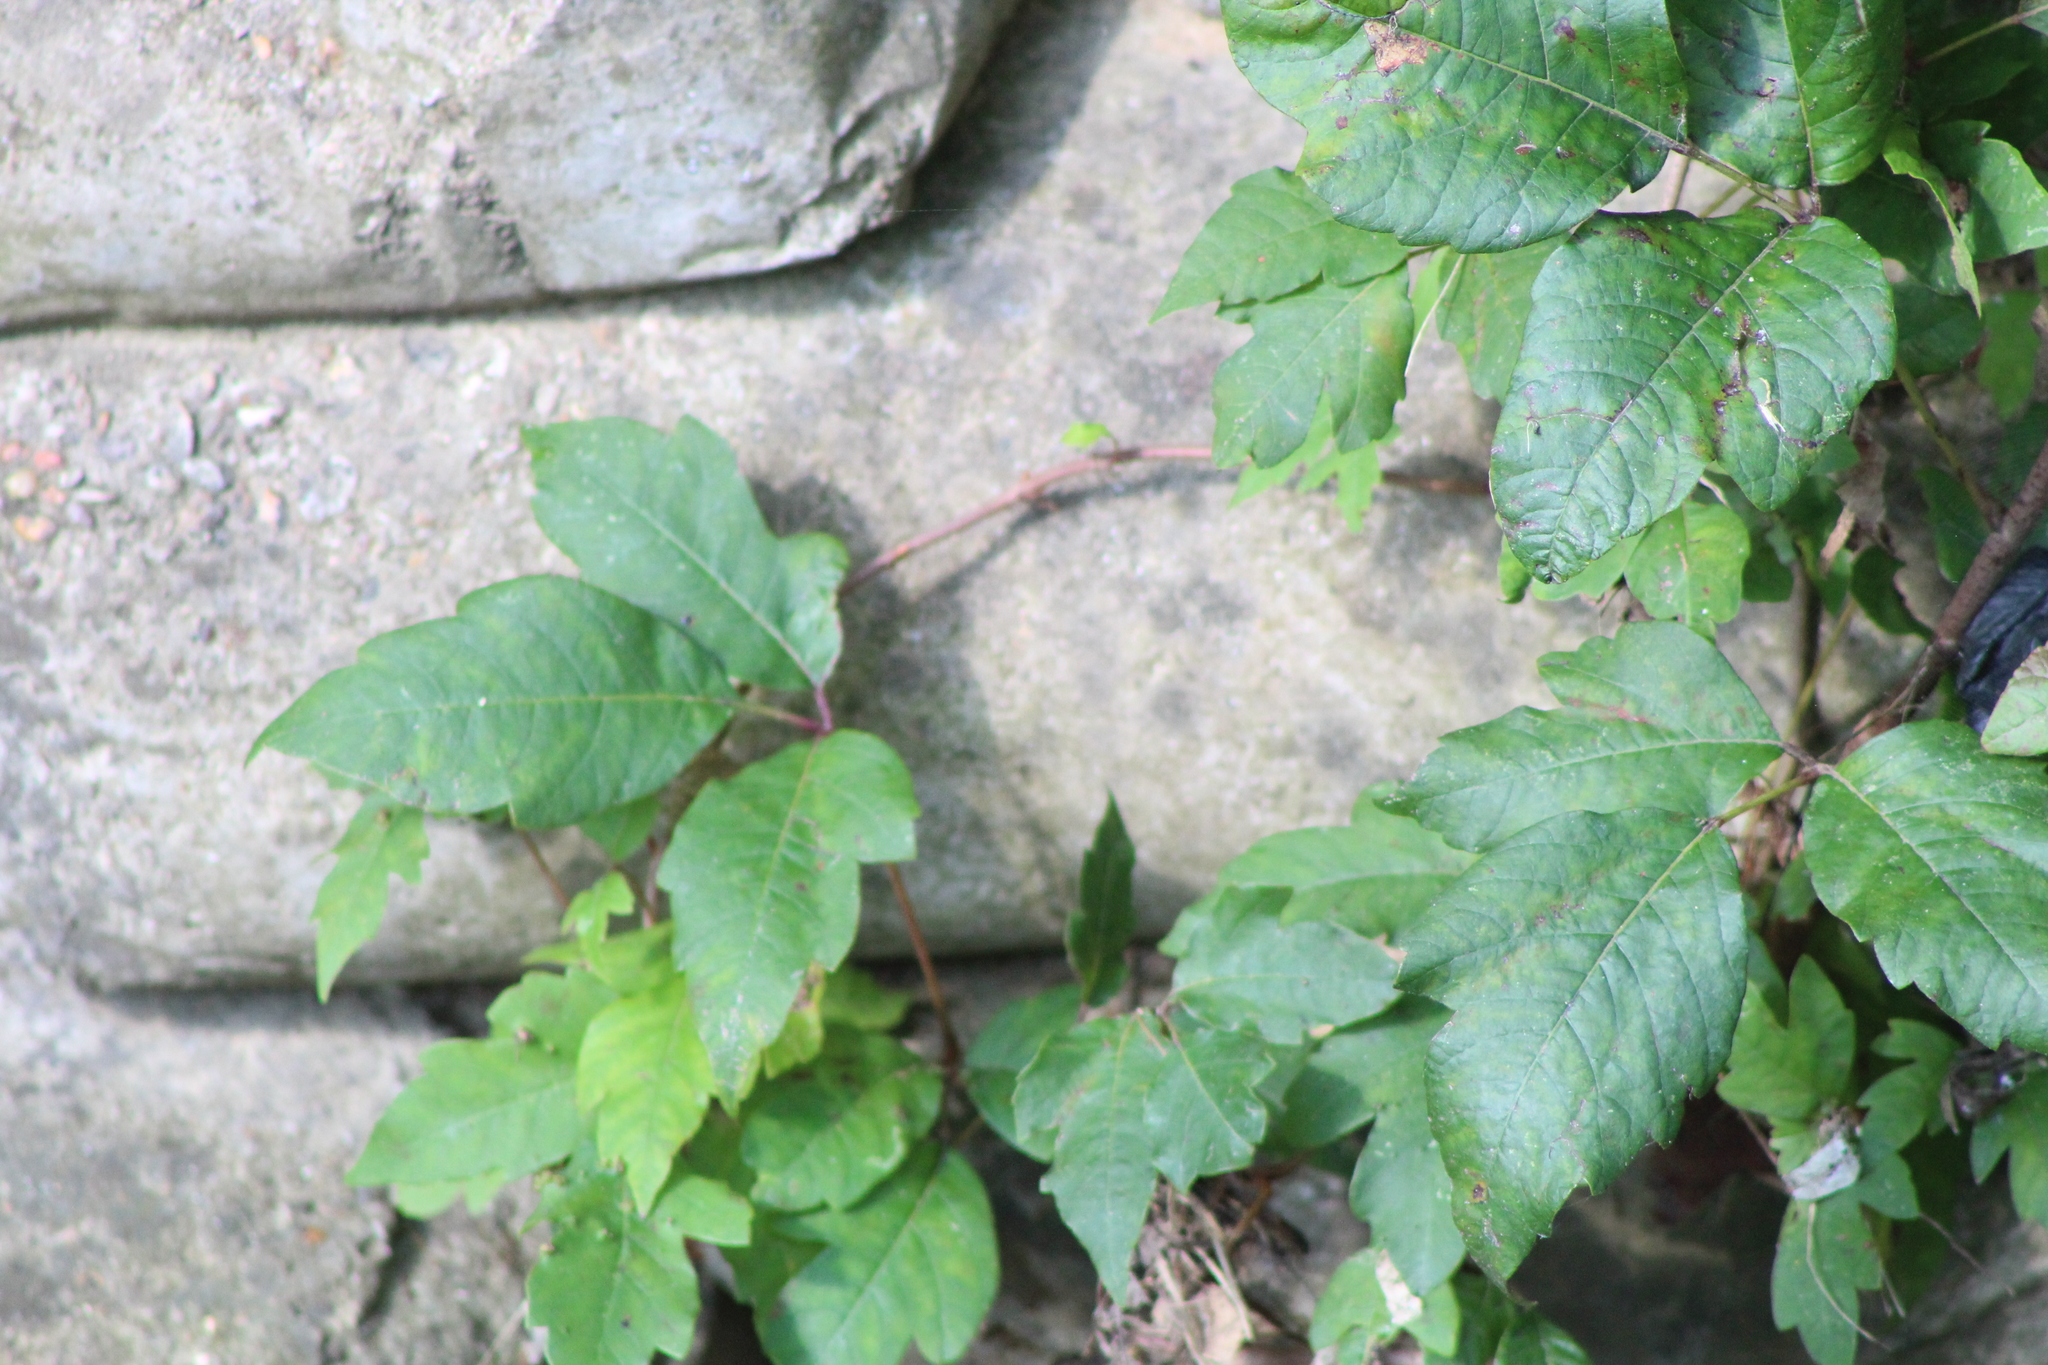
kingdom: Plantae
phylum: Tracheophyta
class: Magnoliopsida
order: Sapindales
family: Anacardiaceae
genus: Toxicodendron
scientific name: Toxicodendron radicans
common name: Poison ivy
